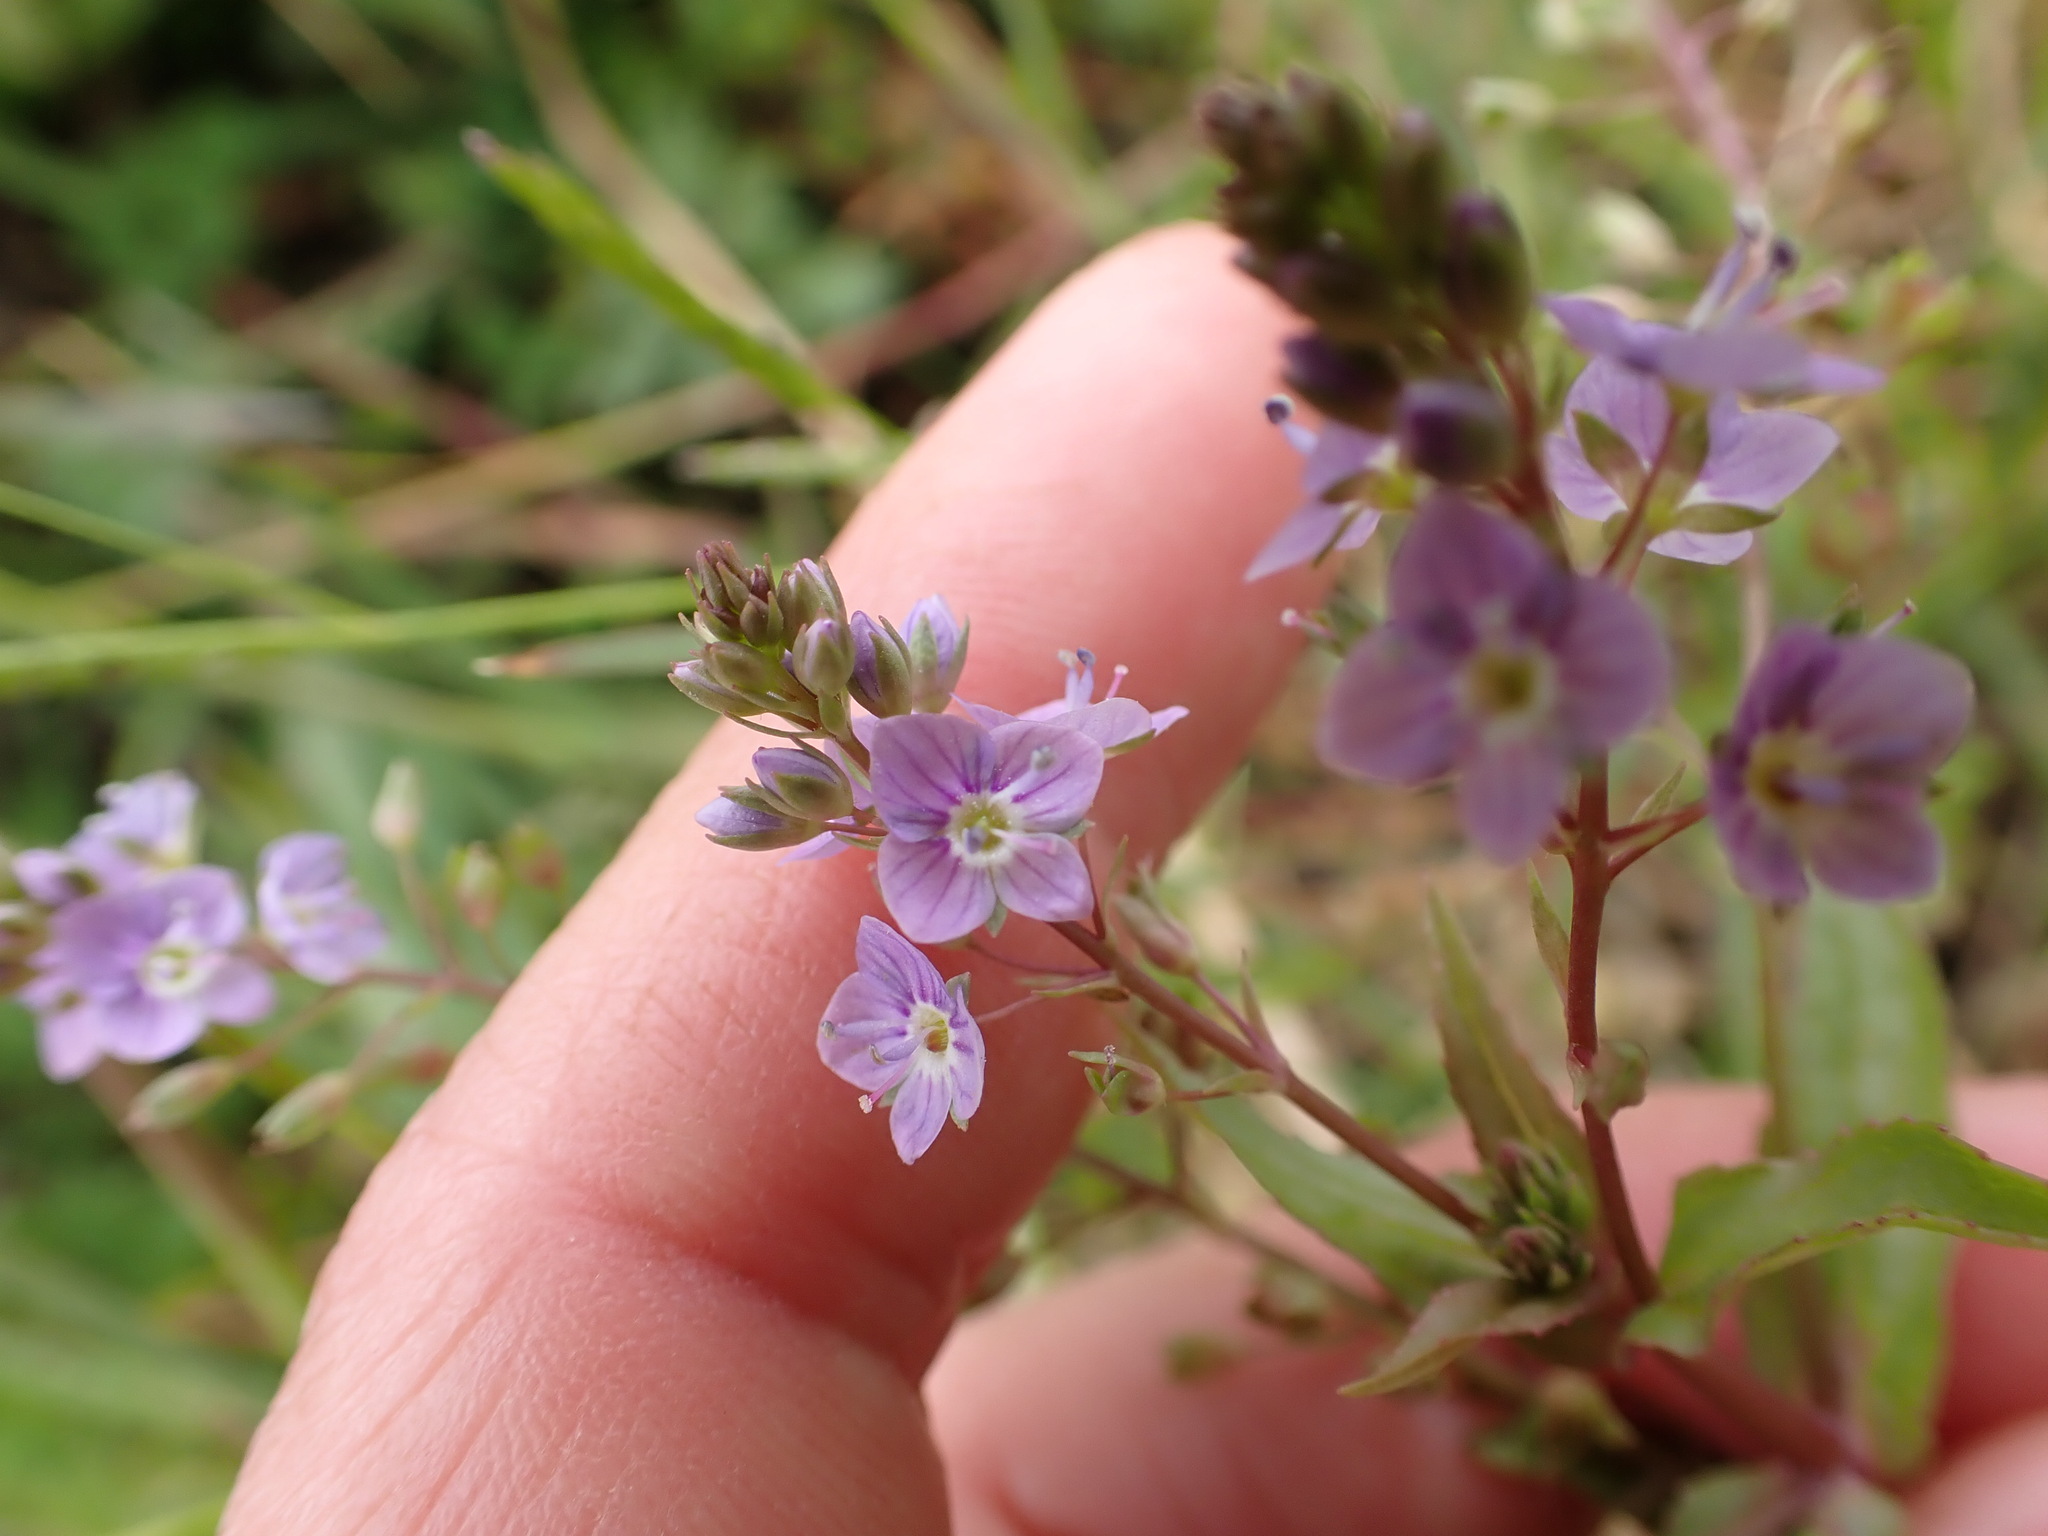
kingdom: Plantae
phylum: Tracheophyta
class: Magnoliopsida
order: Lamiales
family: Plantaginaceae
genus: Veronica
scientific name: Veronica anagallis-aquatica
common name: Water speedwell
